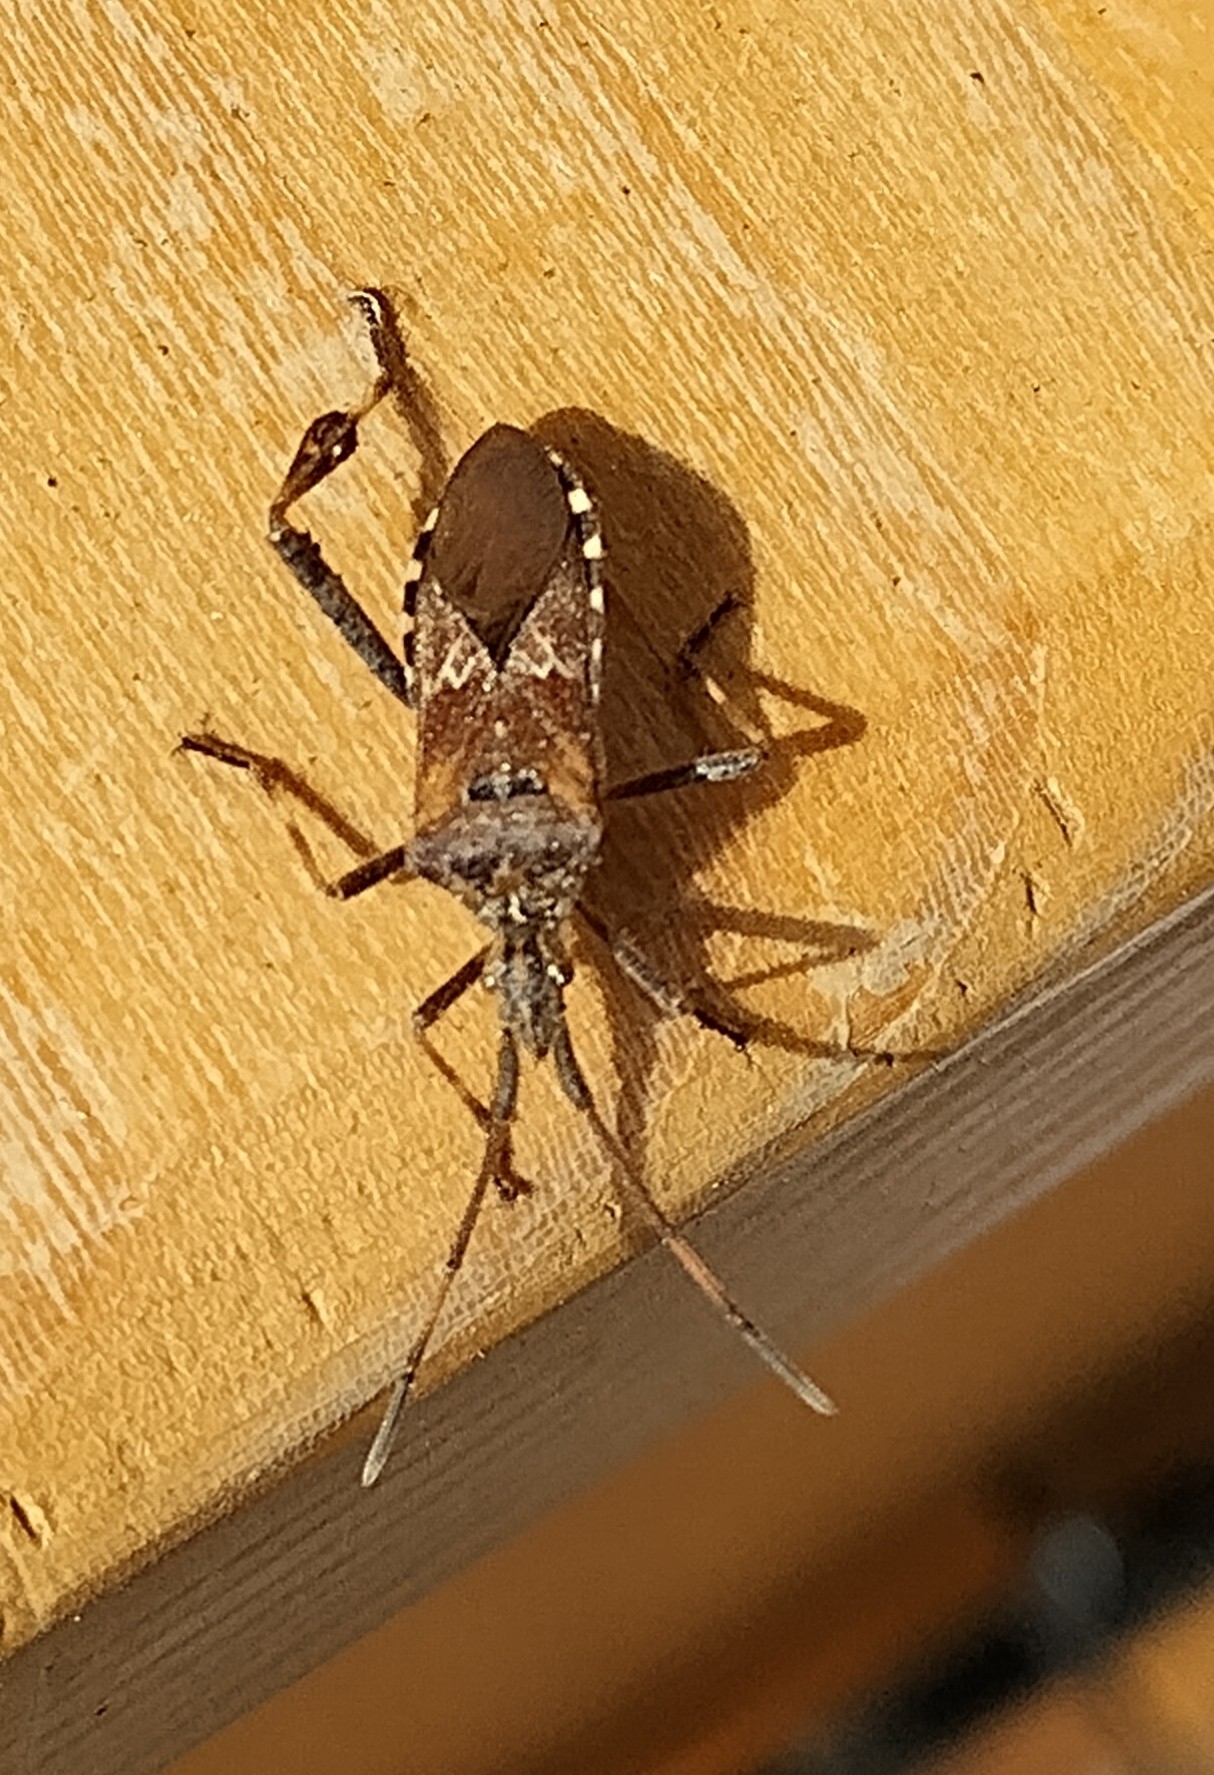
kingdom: Animalia
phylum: Arthropoda
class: Insecta
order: Hemiptera
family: Coreidae
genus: Leptoglossus
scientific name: Leptoglossus occidentalis
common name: Western conifer-seed bug
